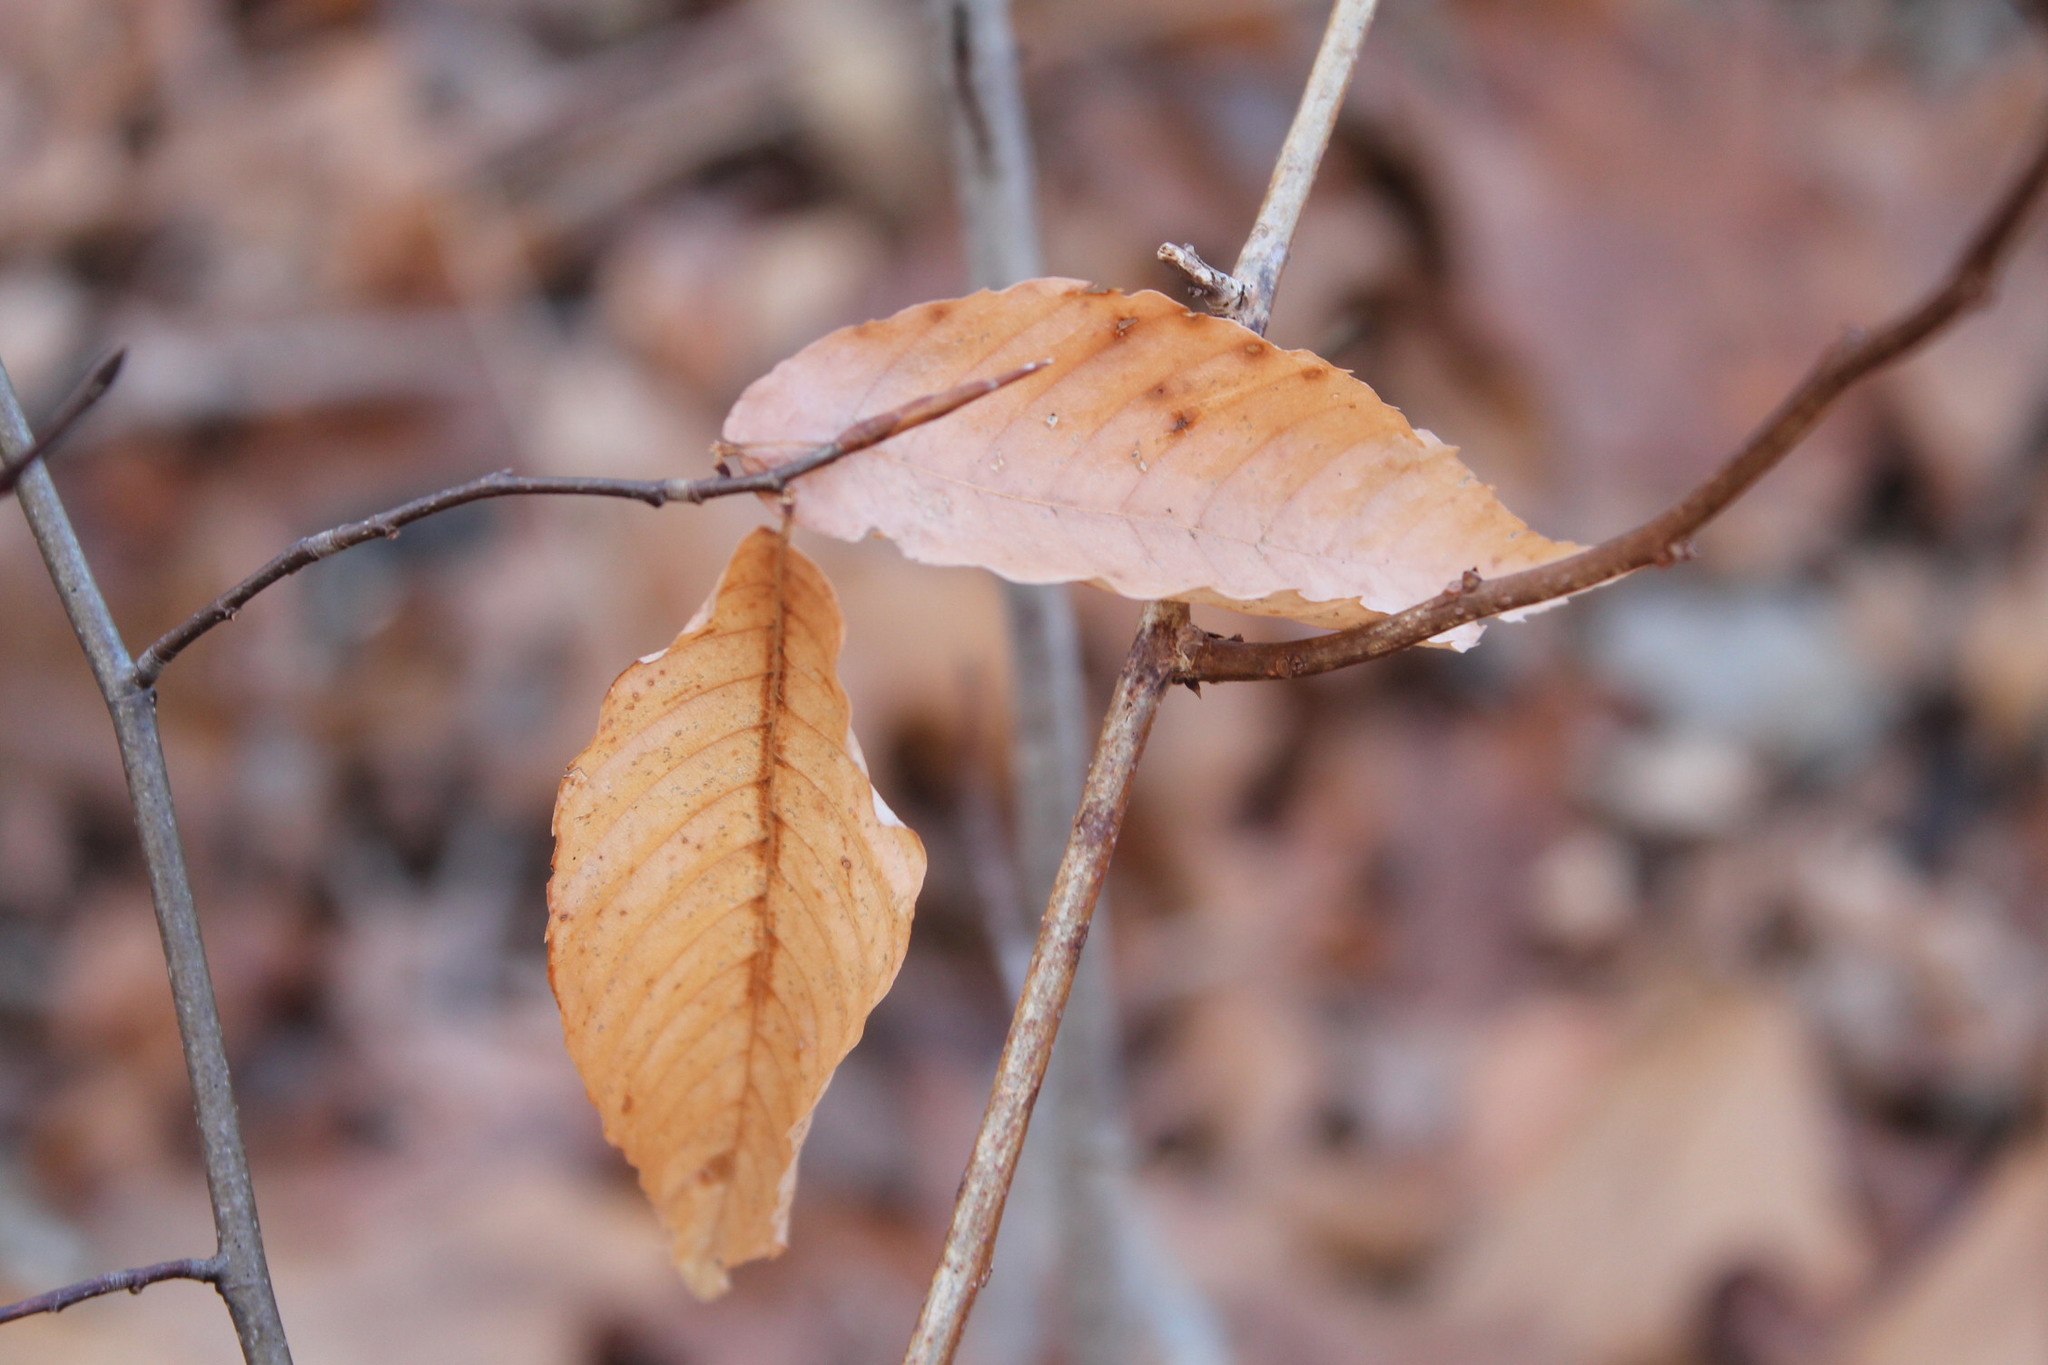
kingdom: Plantae
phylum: Tracheophyta
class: Magnoliopsida
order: Fagales
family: Fagaceae
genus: Fagus
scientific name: Fagus grandifolia
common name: American beech
